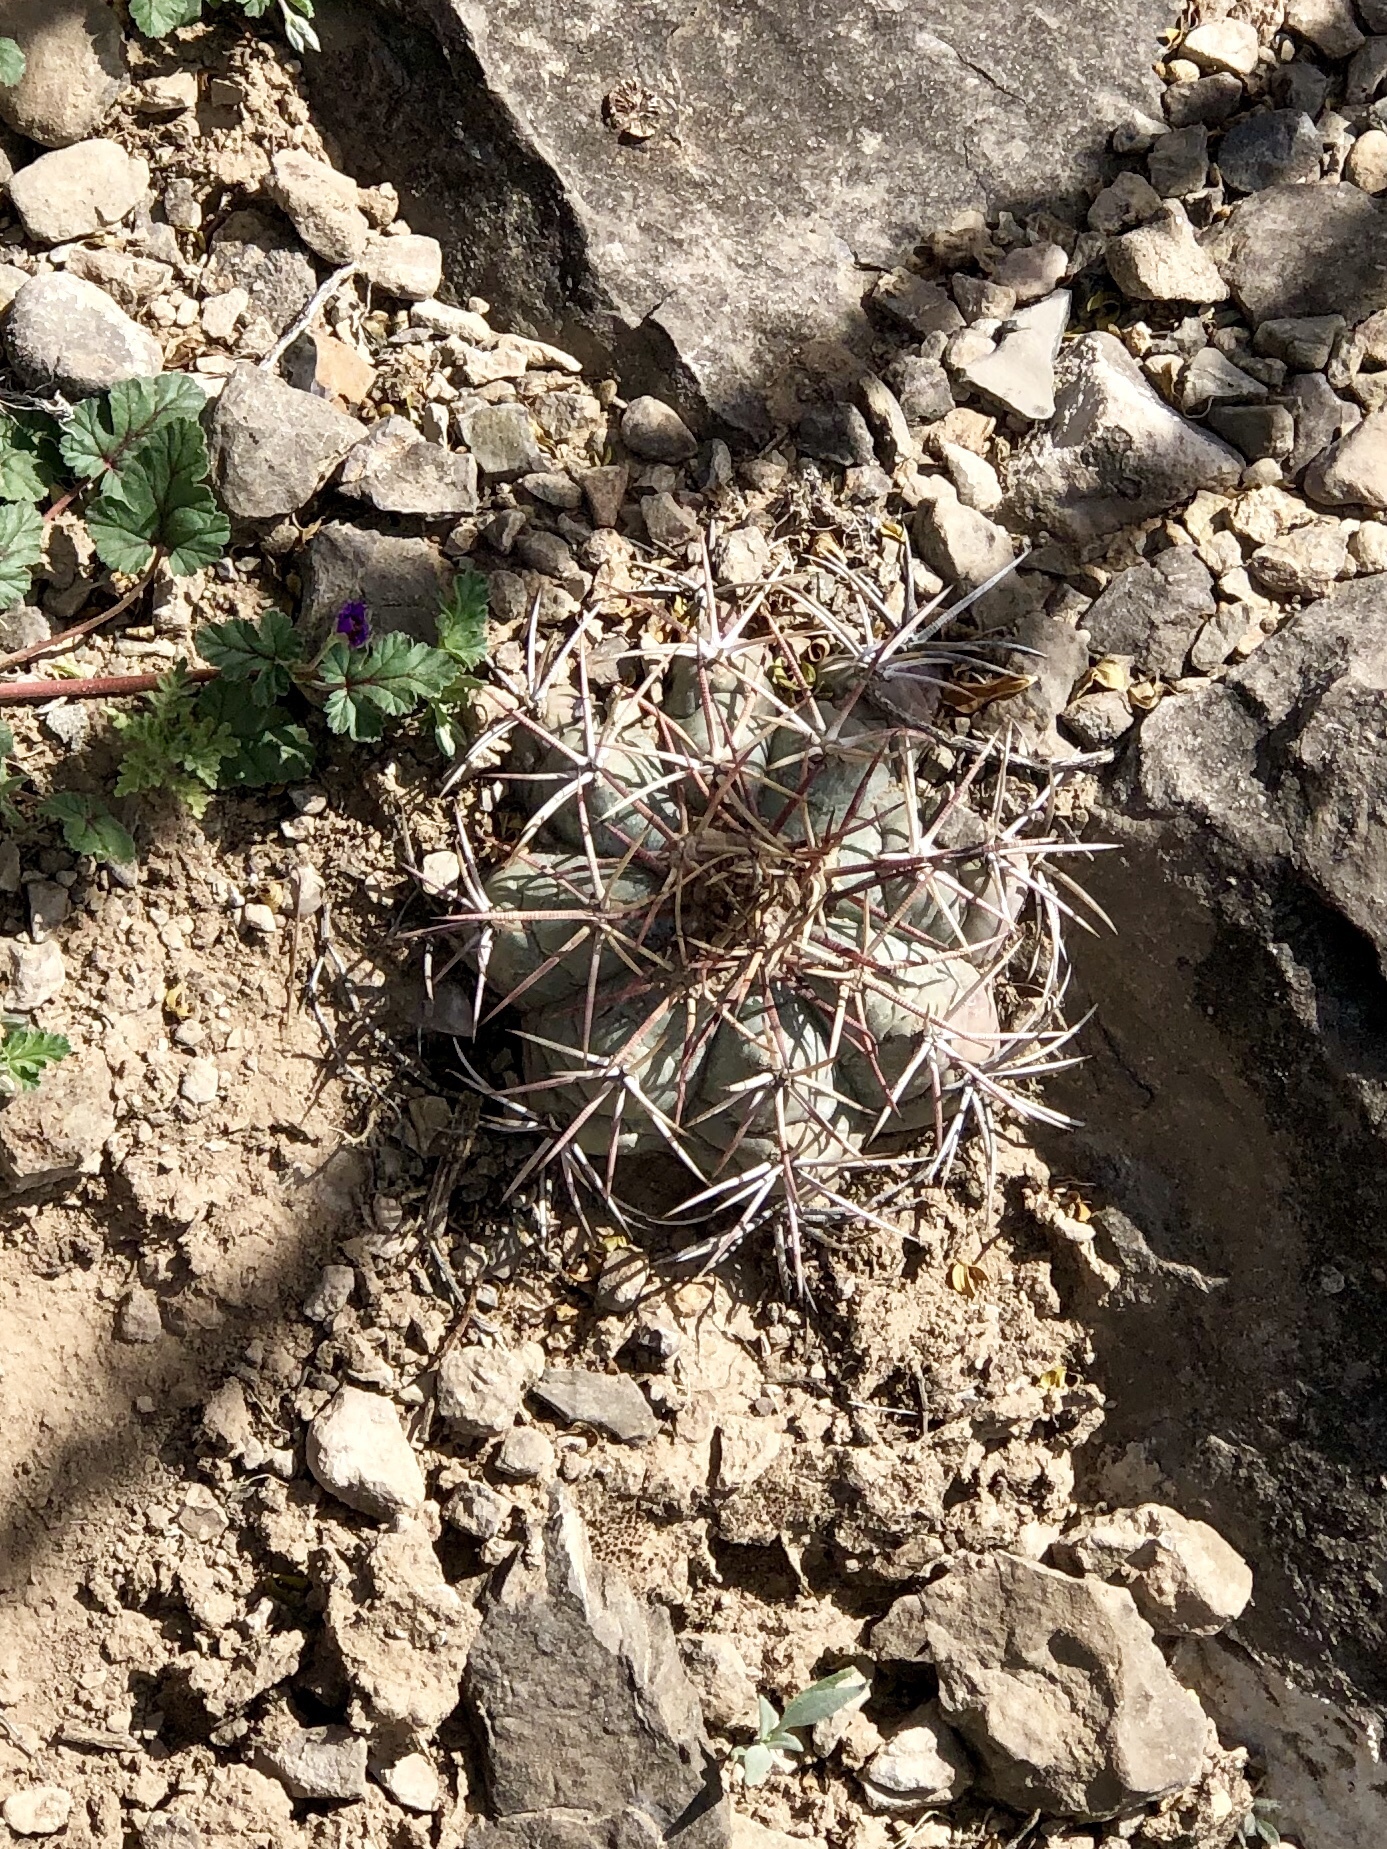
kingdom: Plantae
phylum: Tracheophyta
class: Magnoliopsida
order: Caryophyllales
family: Cactaceae
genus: Echinocactus
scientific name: Echinocactus horizonthalonius
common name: Devilshead
